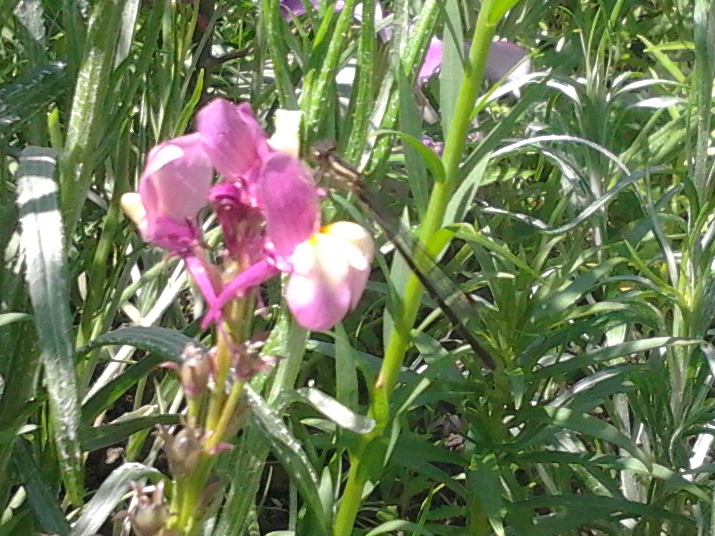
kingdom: Animalia
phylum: Arthropoda
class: Insecta
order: Odonata
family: Coenagrionidae
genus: Xanthocnemis
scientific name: Xanthocnemis zealandica
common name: Common redcoat damselfly
